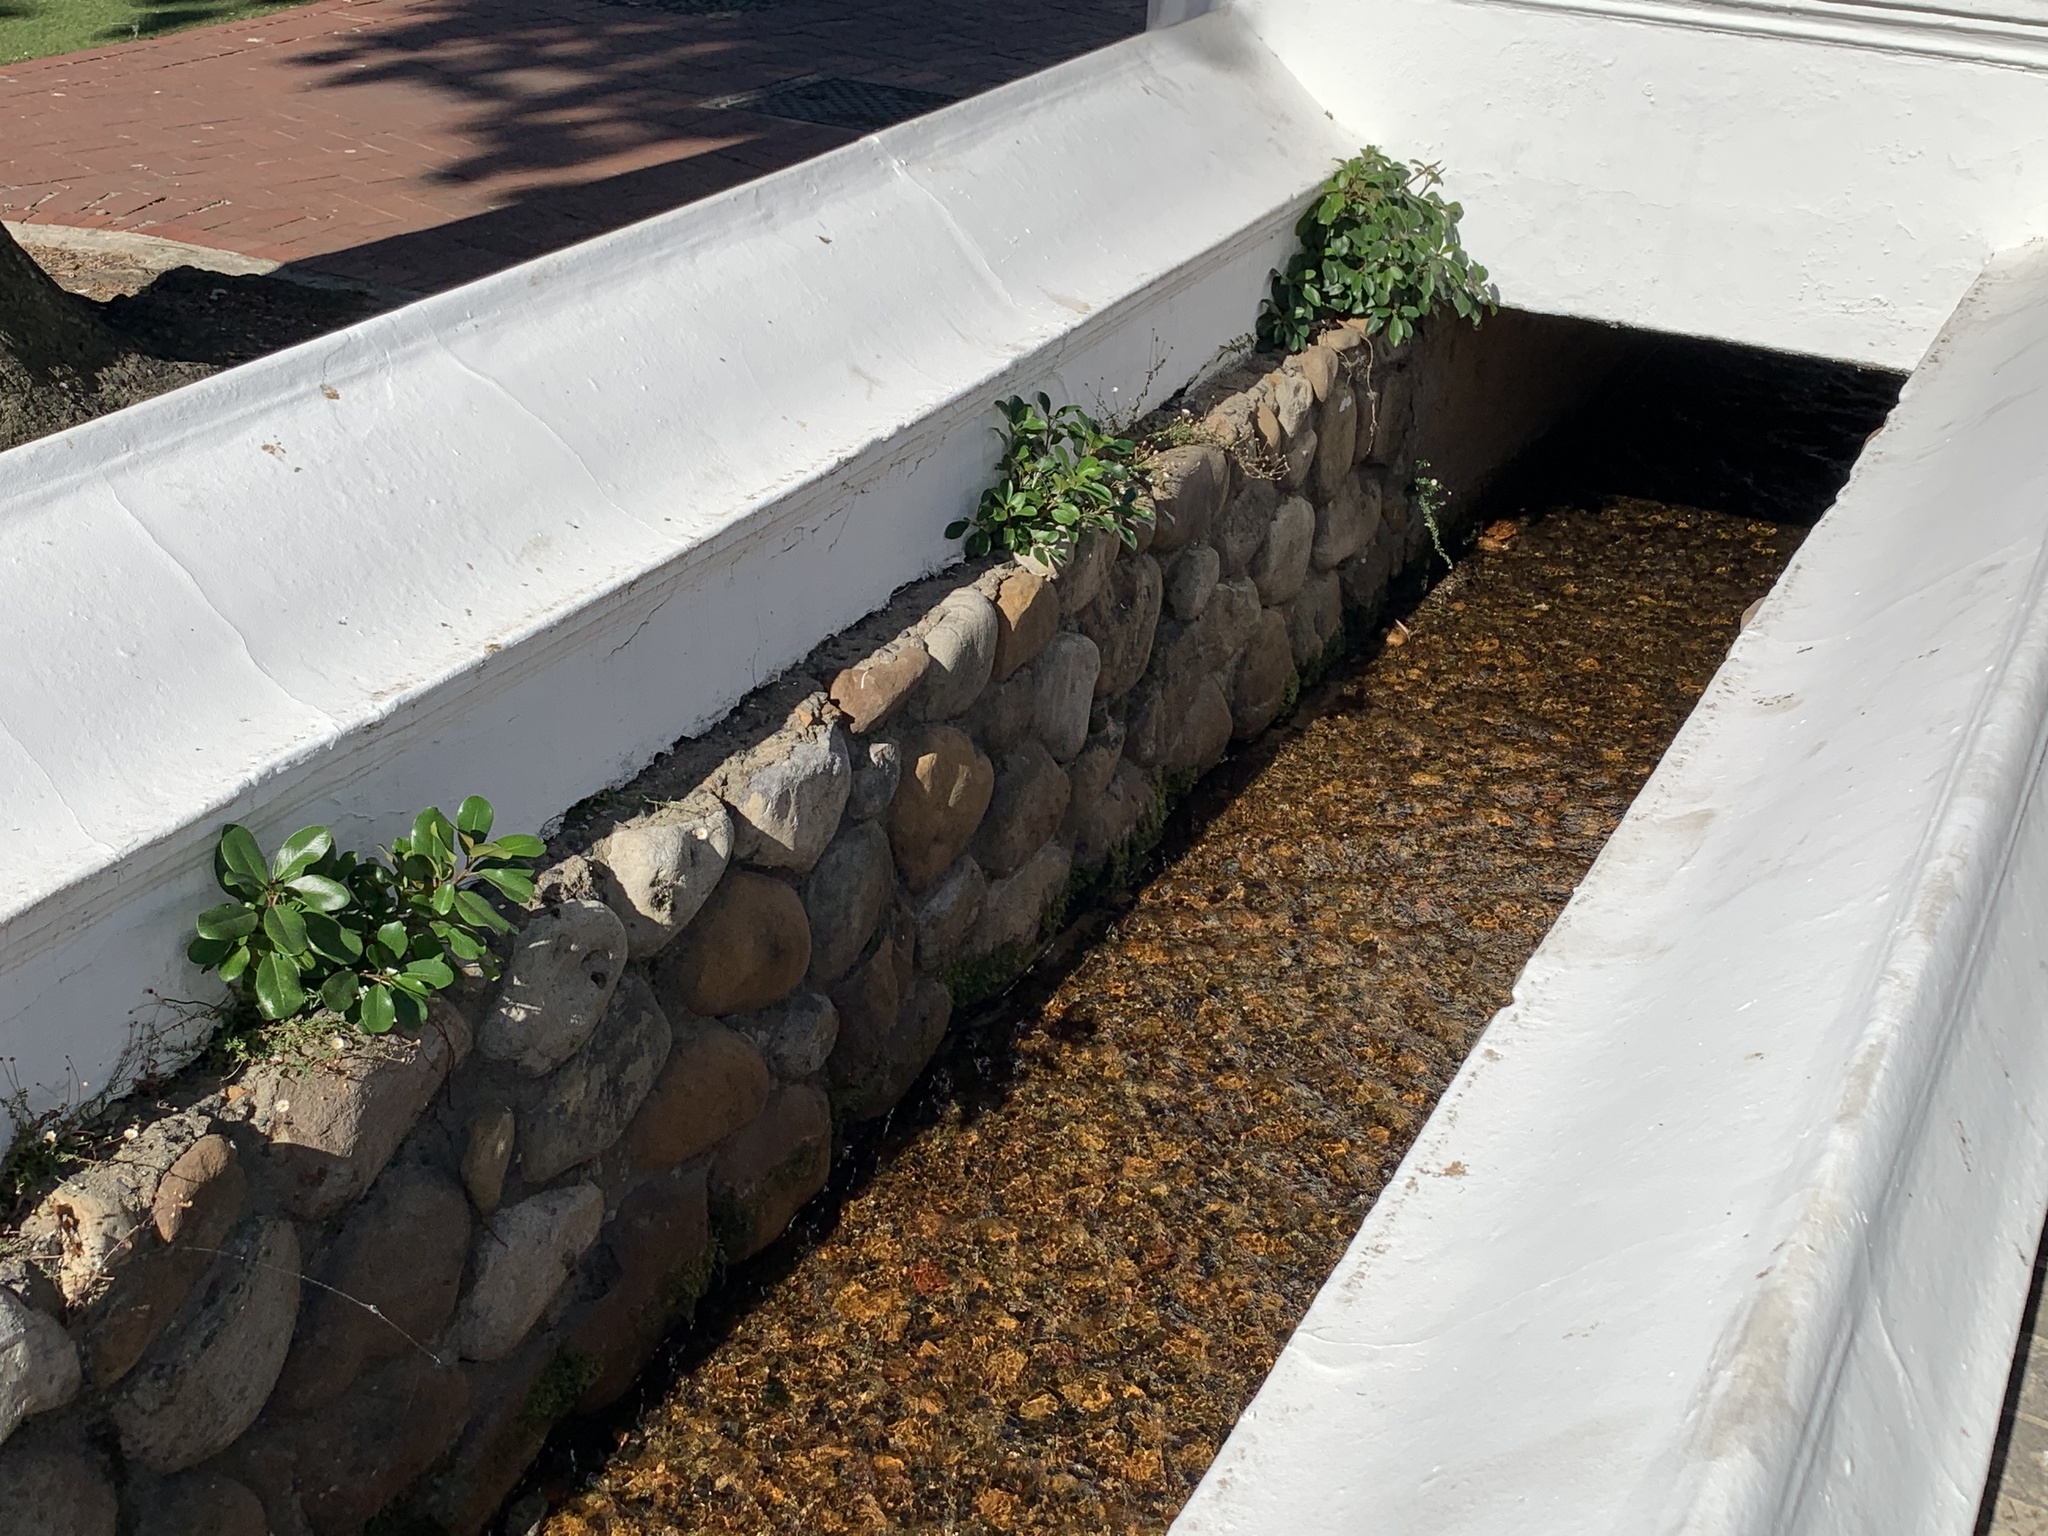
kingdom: Plantae
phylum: Tracheophyta
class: Magnoliopsida
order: Rosales
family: Moraceae
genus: Ficus
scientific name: Ficus thonningii
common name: Fig
